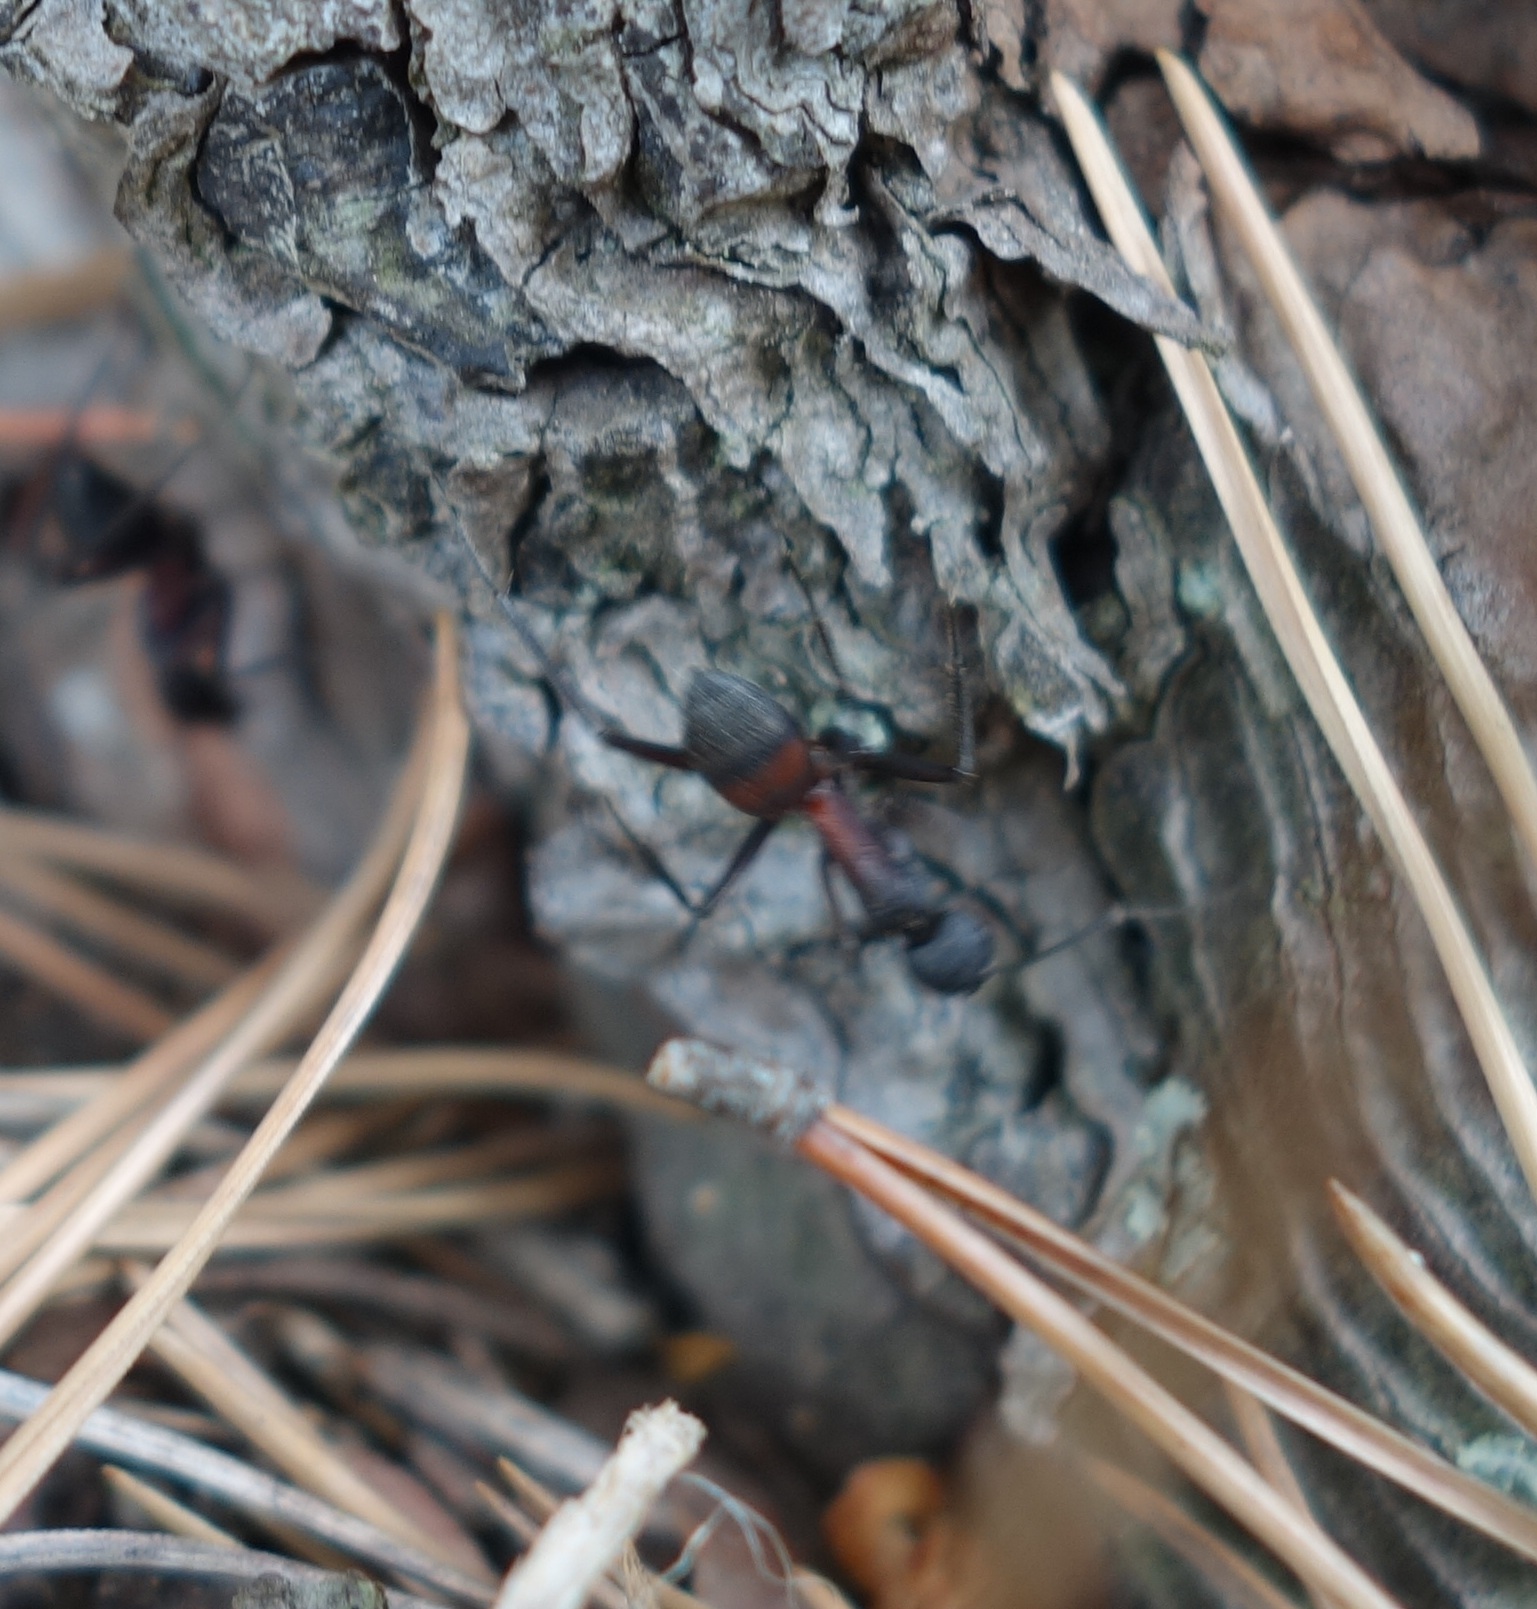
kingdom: Animalia
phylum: Arthropoda
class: Insecta
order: Hymenoptera
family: Formicidae
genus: Camponotus
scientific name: Camponotus cruentatus
